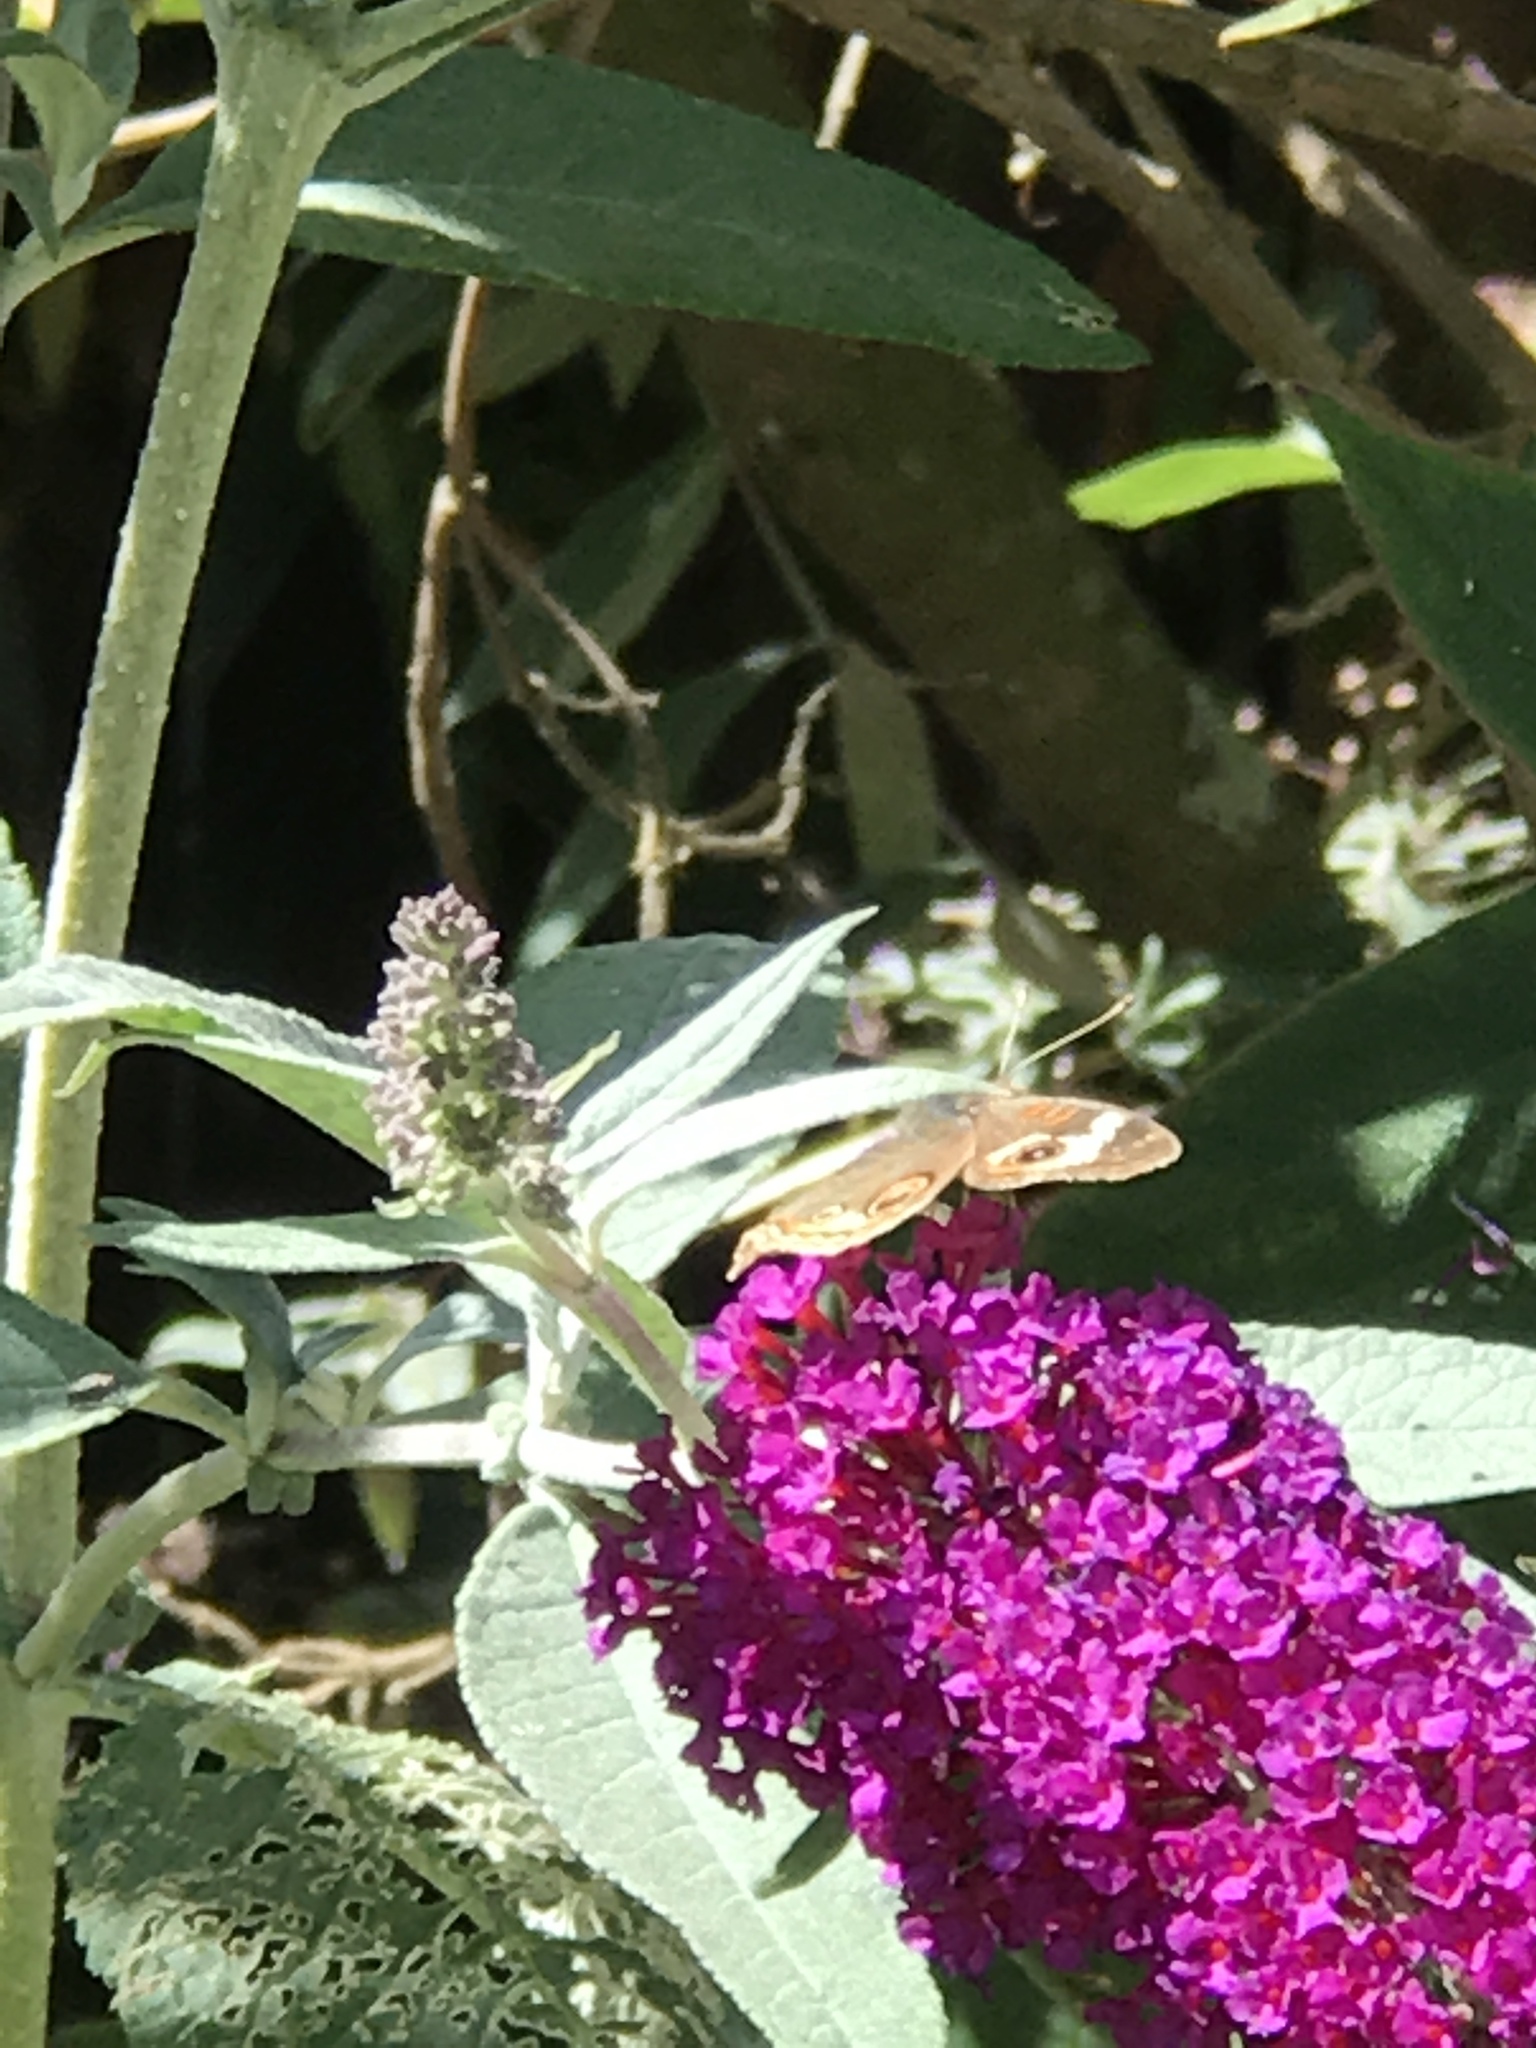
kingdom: Animalia
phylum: Arthropoda
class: Insecta
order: Lepidoptera
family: Nymphalidae
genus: Junonia
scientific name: Junonia grisea
